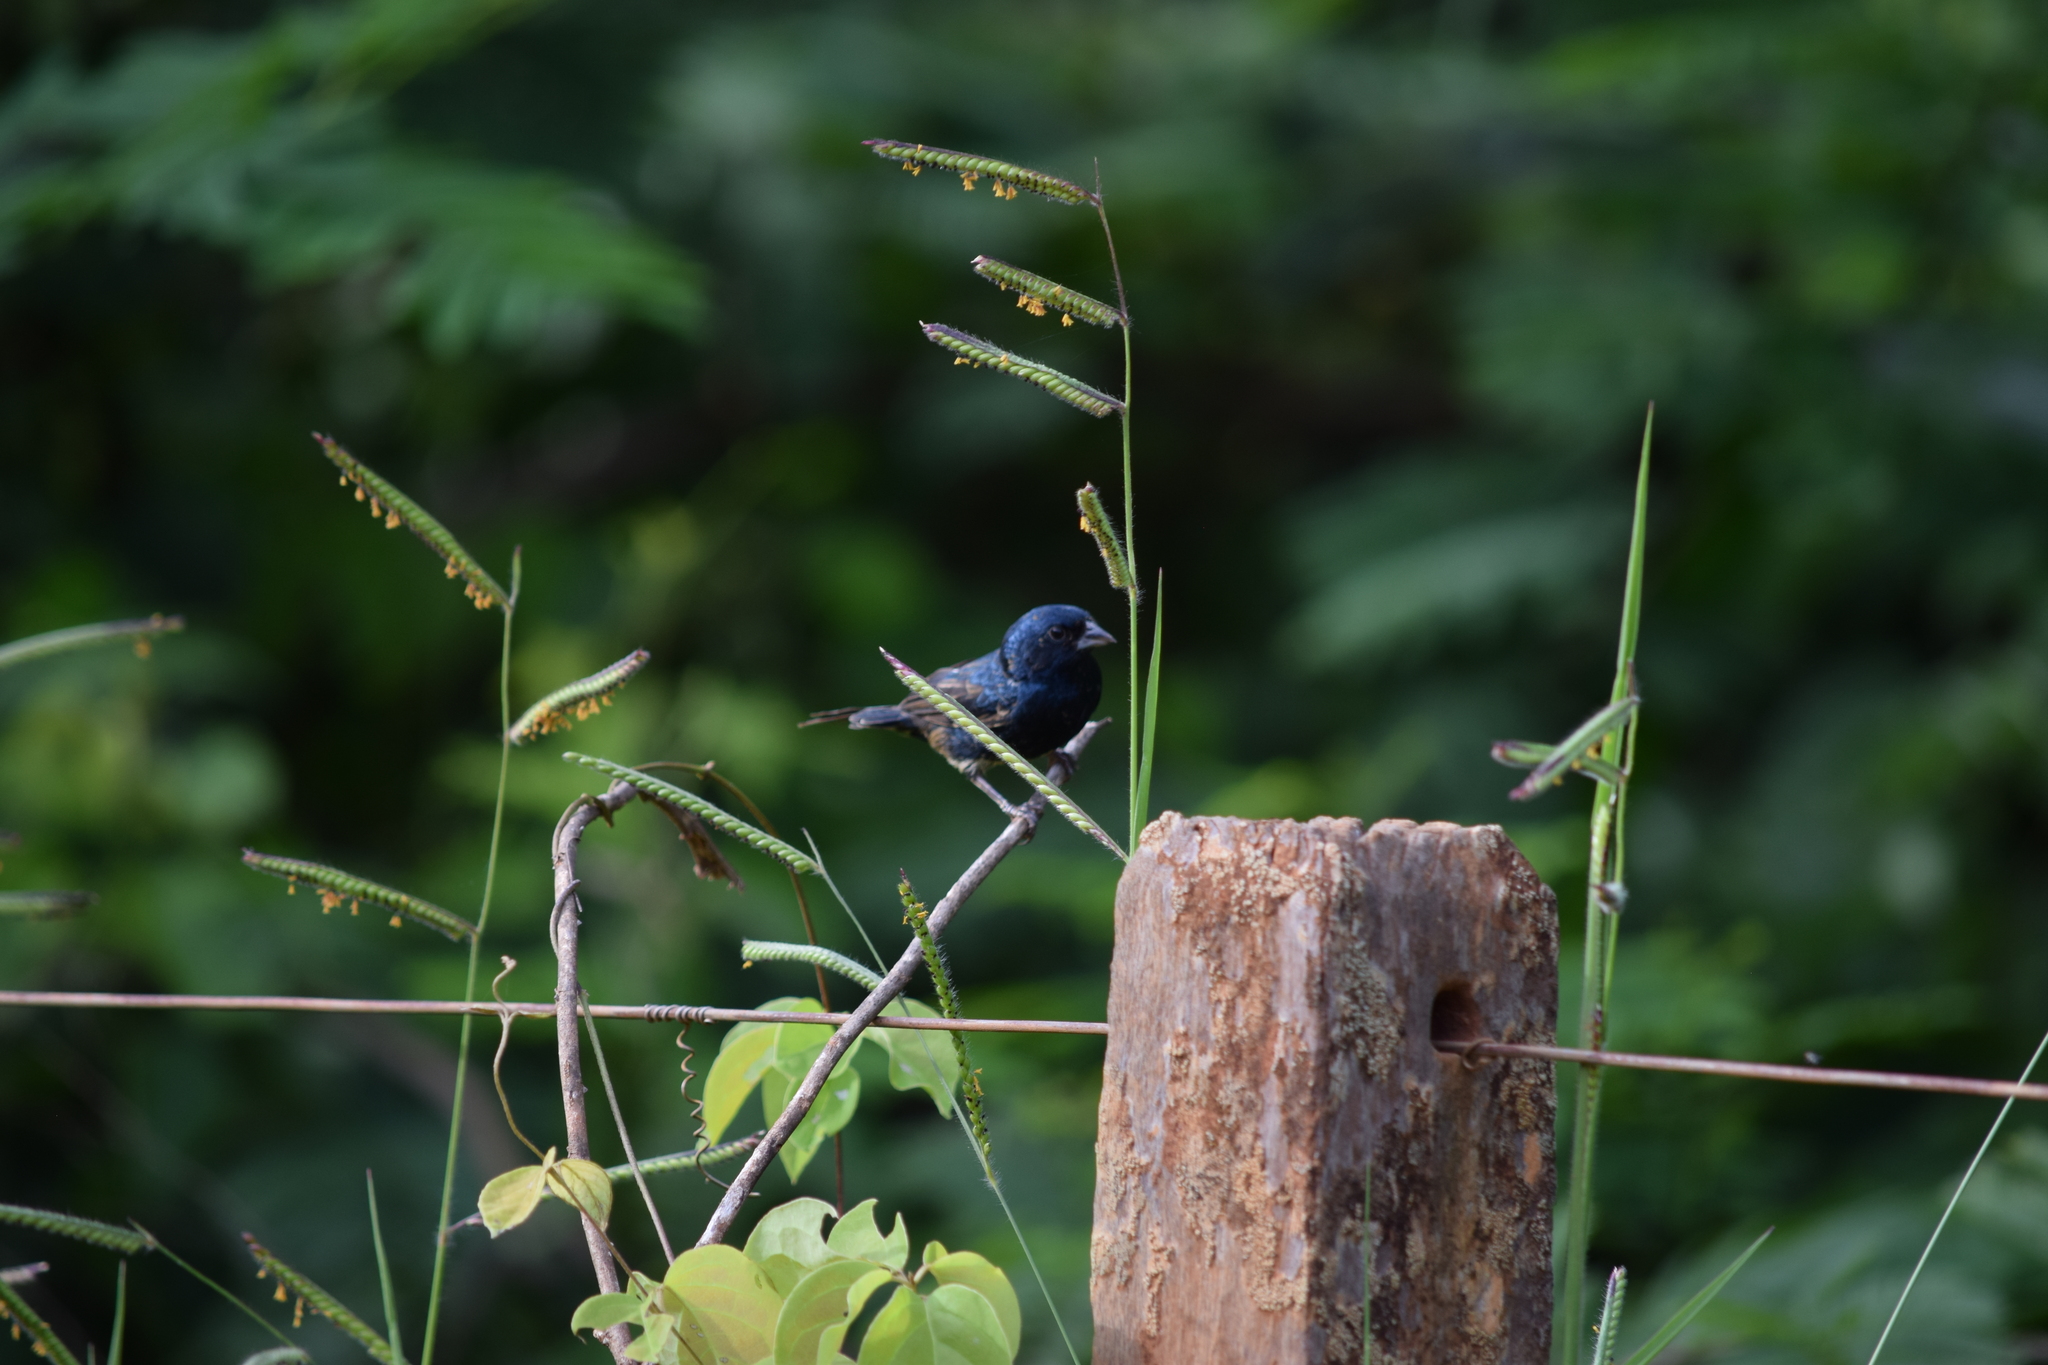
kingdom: Animalia
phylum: Chordata
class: Aves
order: Passeriformes
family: Thraupidae
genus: Volatinia
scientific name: Volatinia jacarina
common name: Blue-black grassquit
